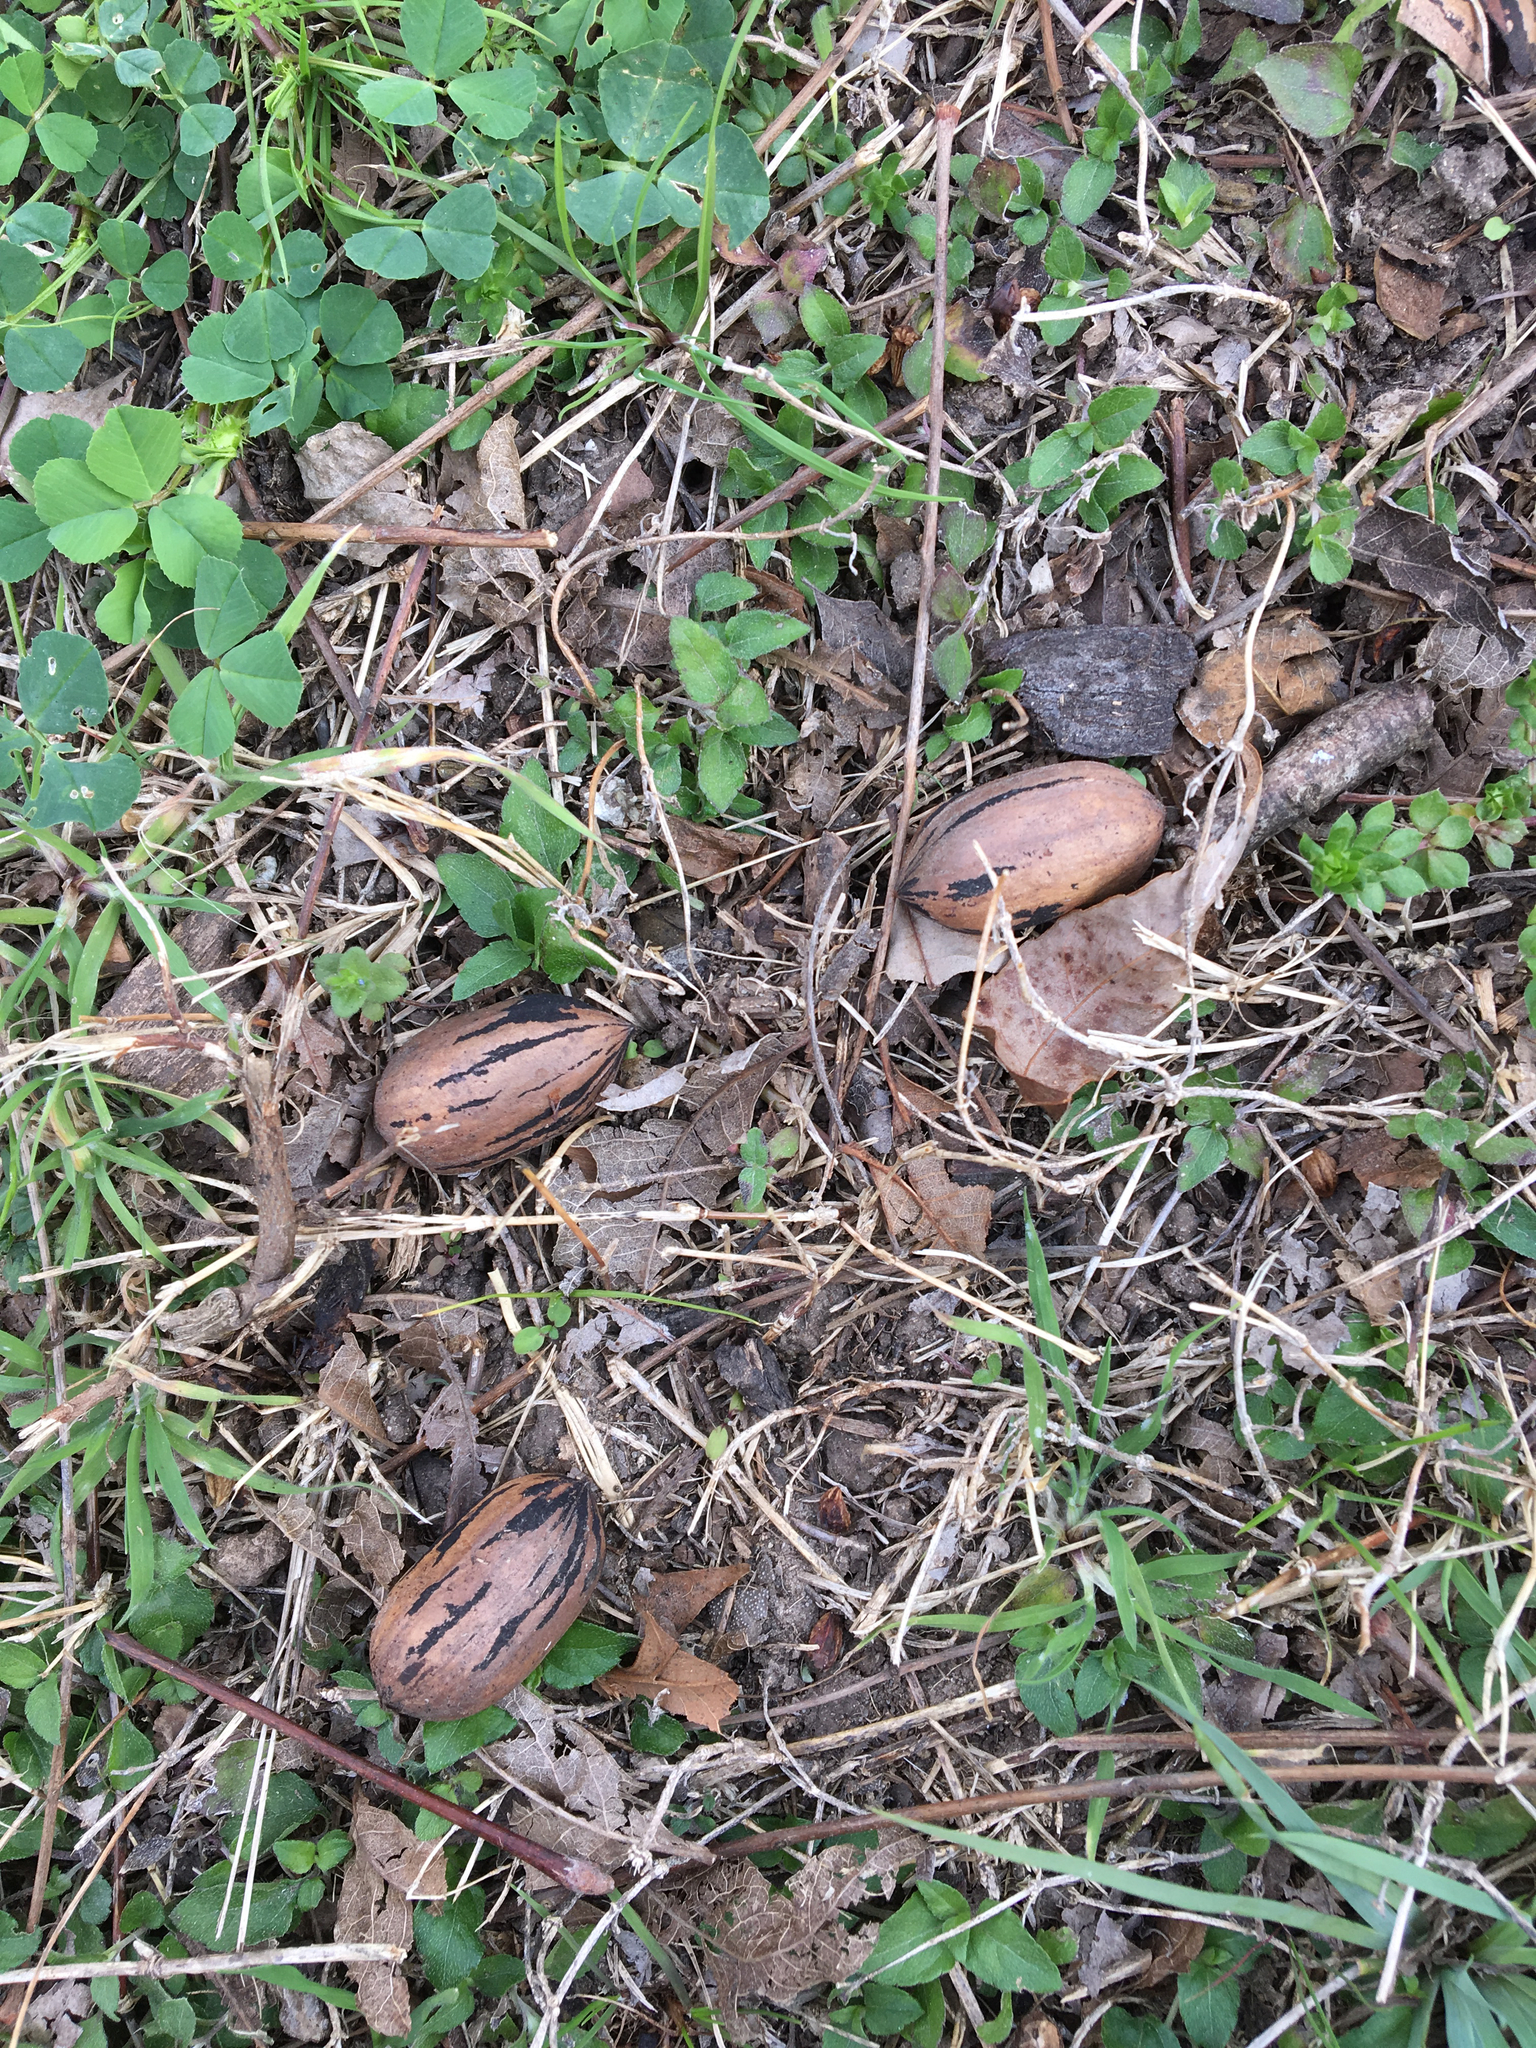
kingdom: Plantae
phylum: Tracheophyta
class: Magnoliopsida
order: Fagales
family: Juglandaceae
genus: Carya
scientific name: Carya illinoinensis
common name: Pecan
